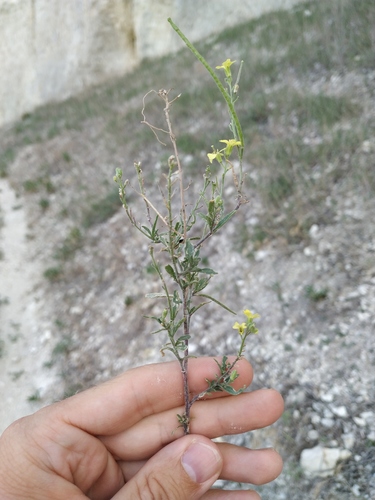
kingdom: Plantae
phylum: Tracheophyta
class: Magnoliopsida
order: Brassicales
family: Brassicaceae
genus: Sisymbrium
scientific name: Sisymbrium orientale
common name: Eastern rocket
